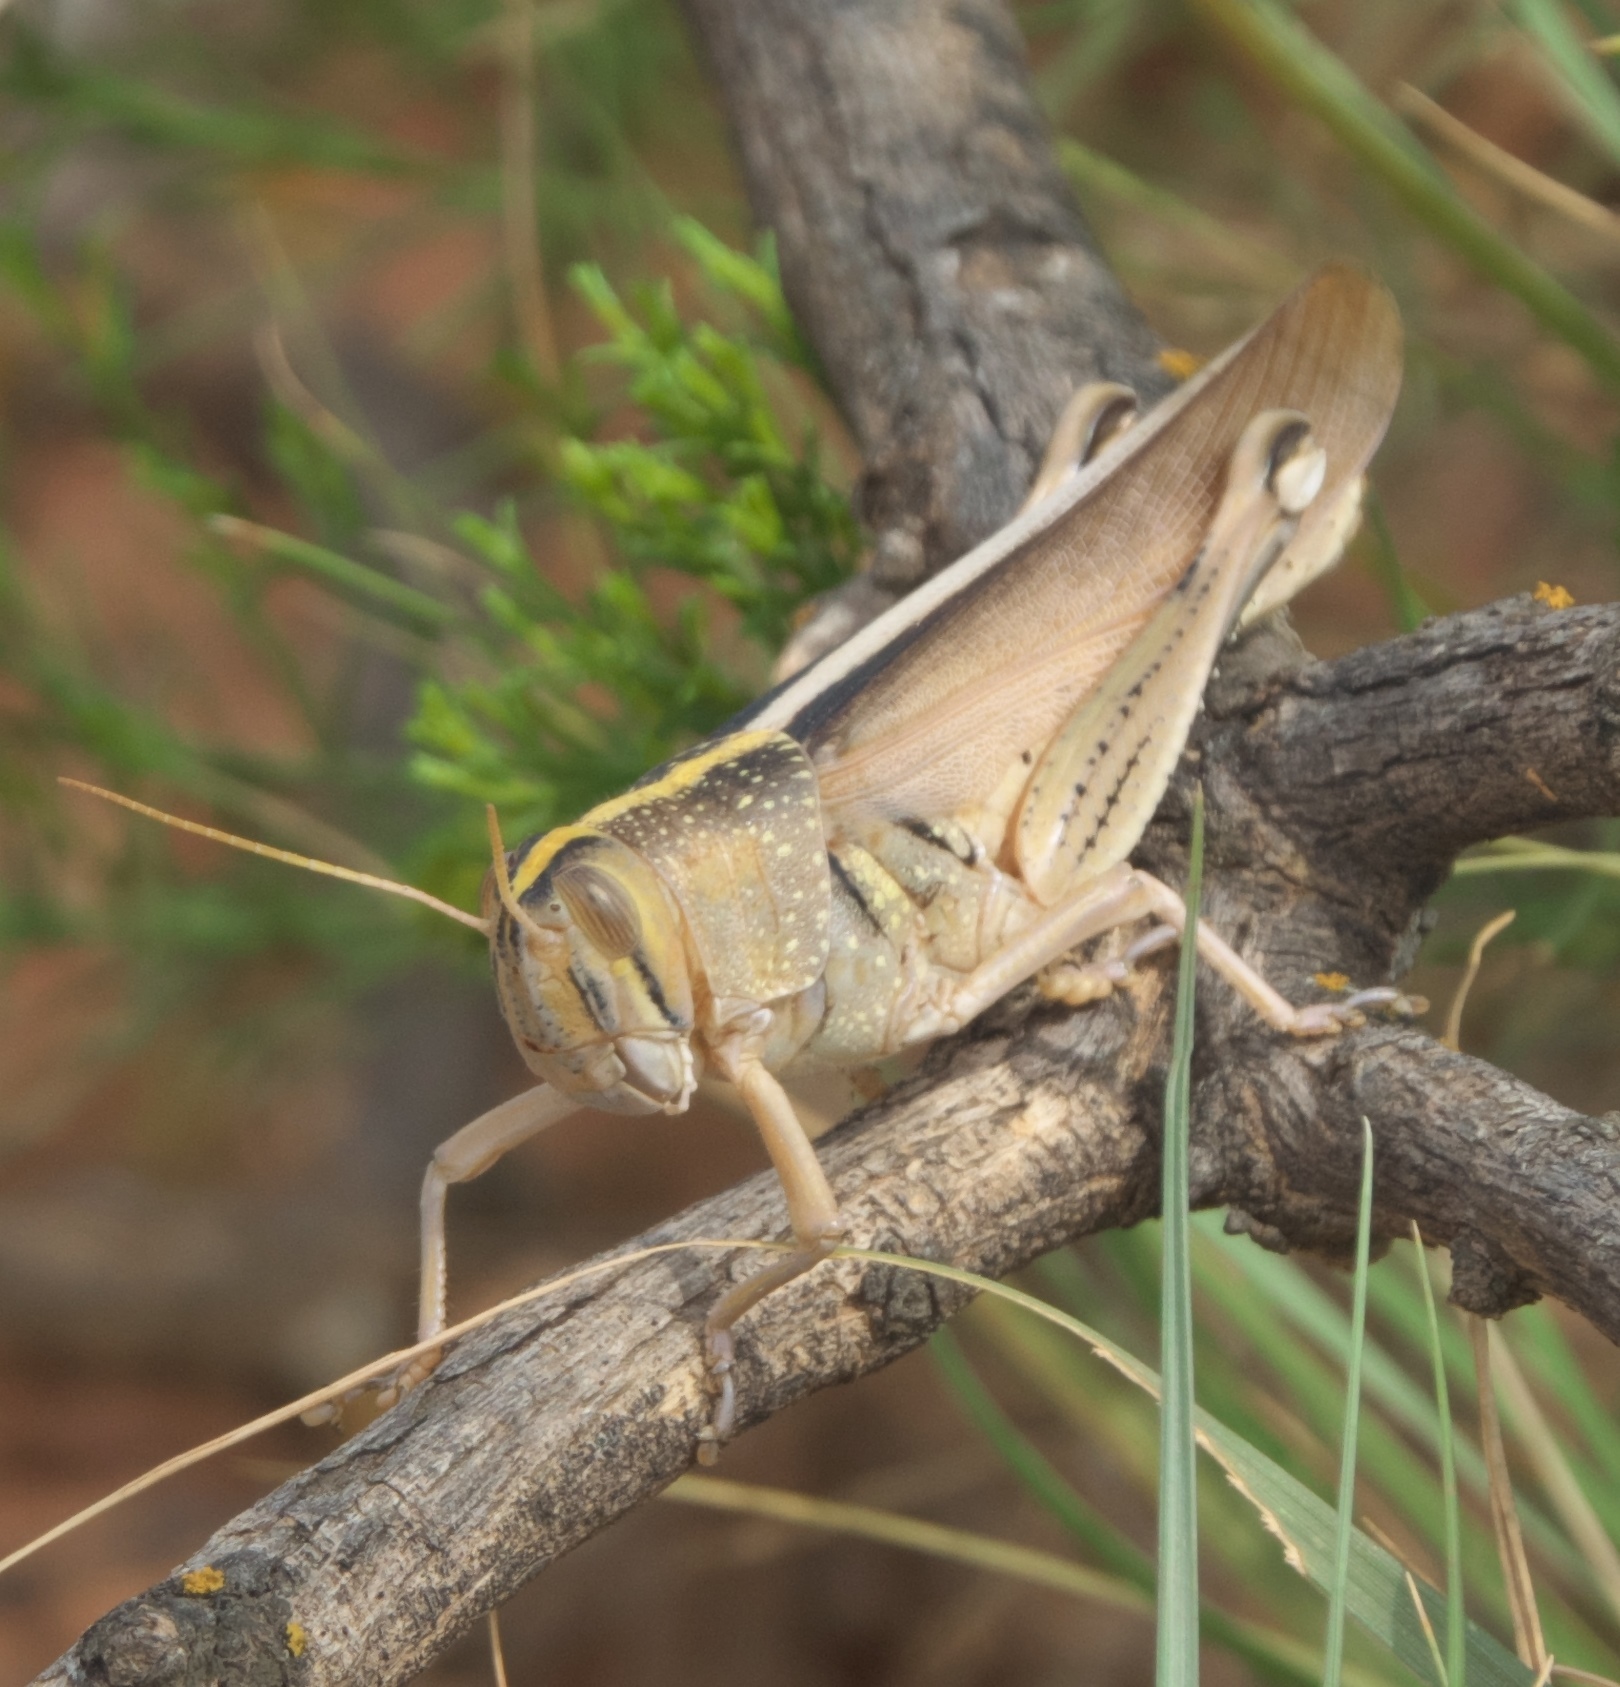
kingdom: Animalia
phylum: Arthropoda
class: Insecta
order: Orthoptera
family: Acrididae
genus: Schistocerca
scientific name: Schistocerca lineata
